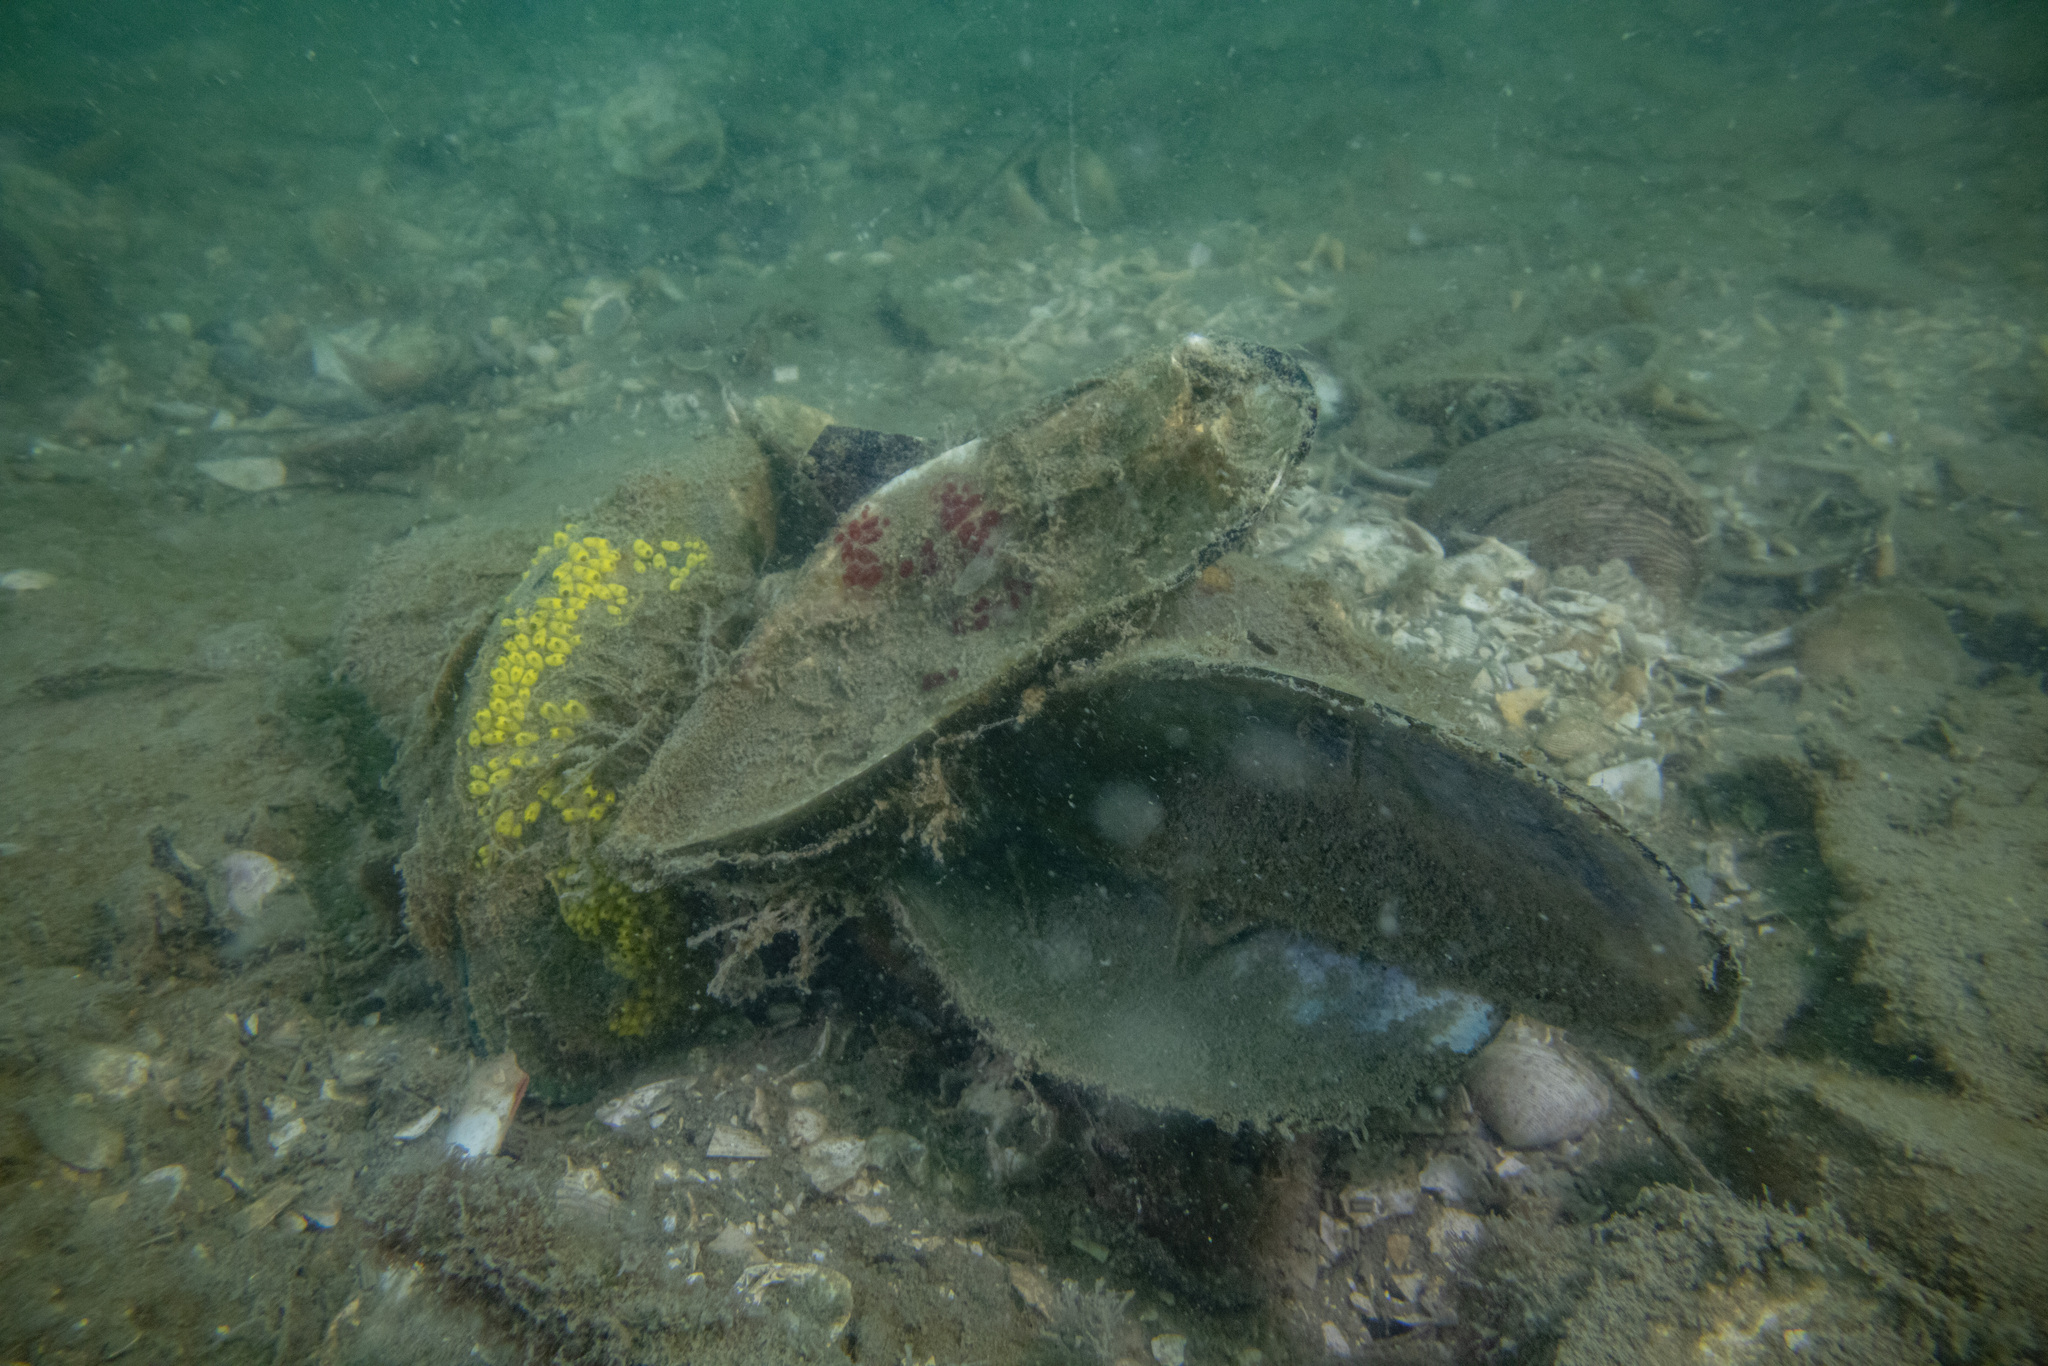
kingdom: Animalia
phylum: Chordata
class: Ascidiacea
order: Stolidobranchia
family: Styelidae
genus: Symplegma
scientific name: Symplegma brakenhielmi
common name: Ascidian
